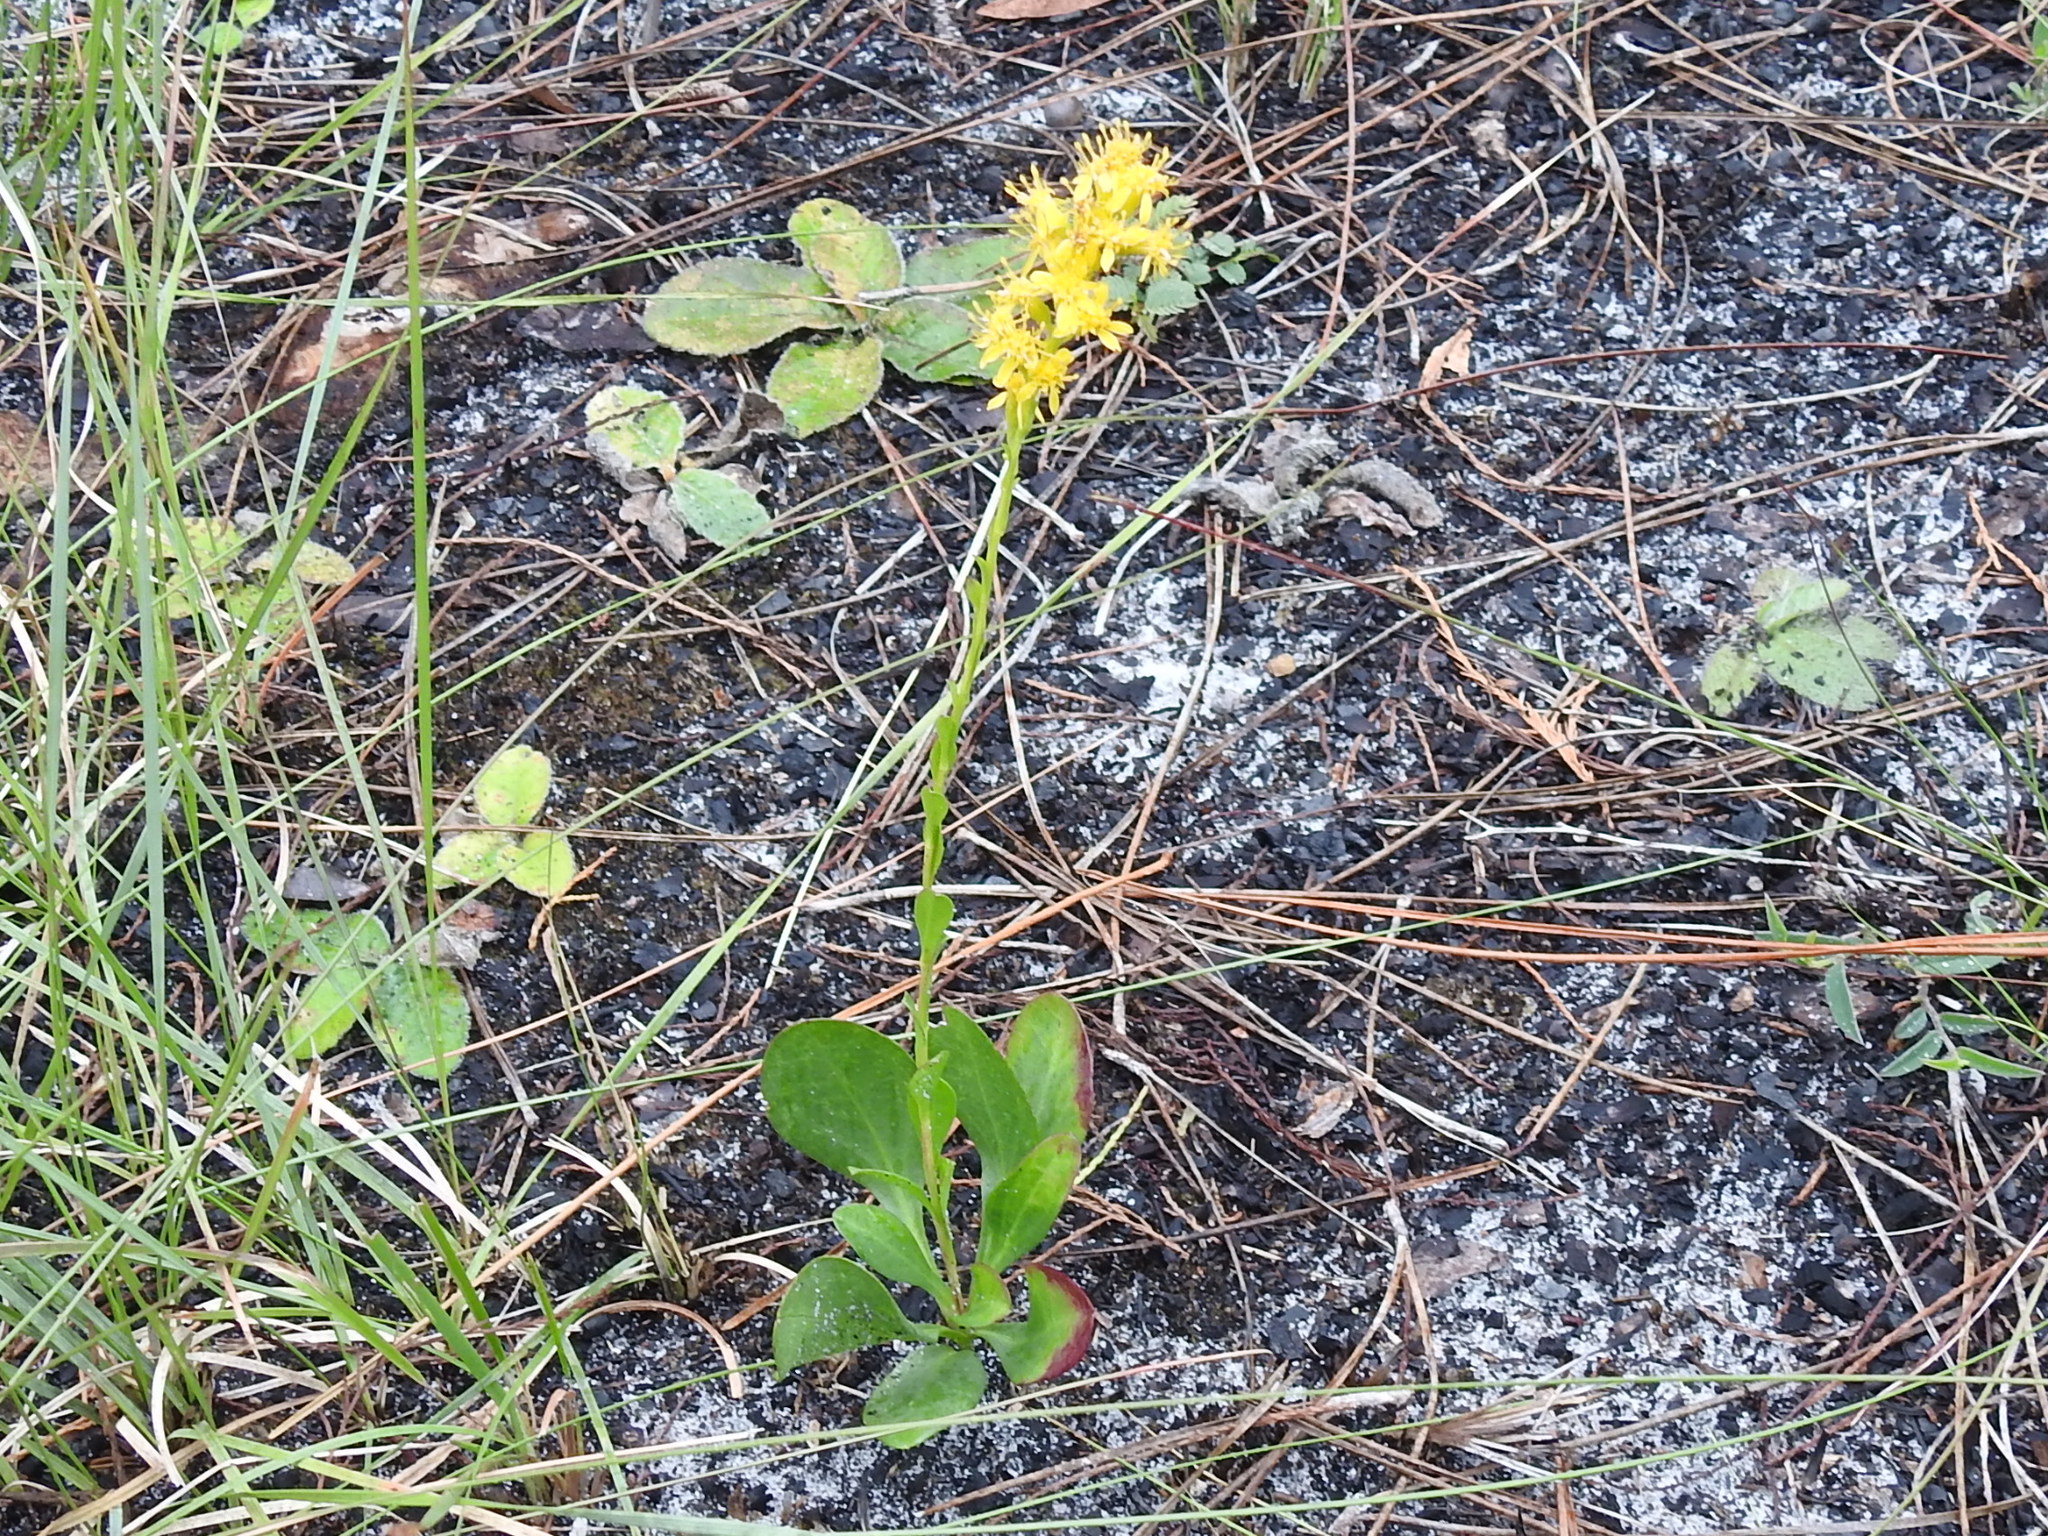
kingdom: Plantae
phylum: Tracheophyta
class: Magnoliopsida
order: Asterales
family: Asteraceae
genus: Solidago
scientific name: Solidago virgata
